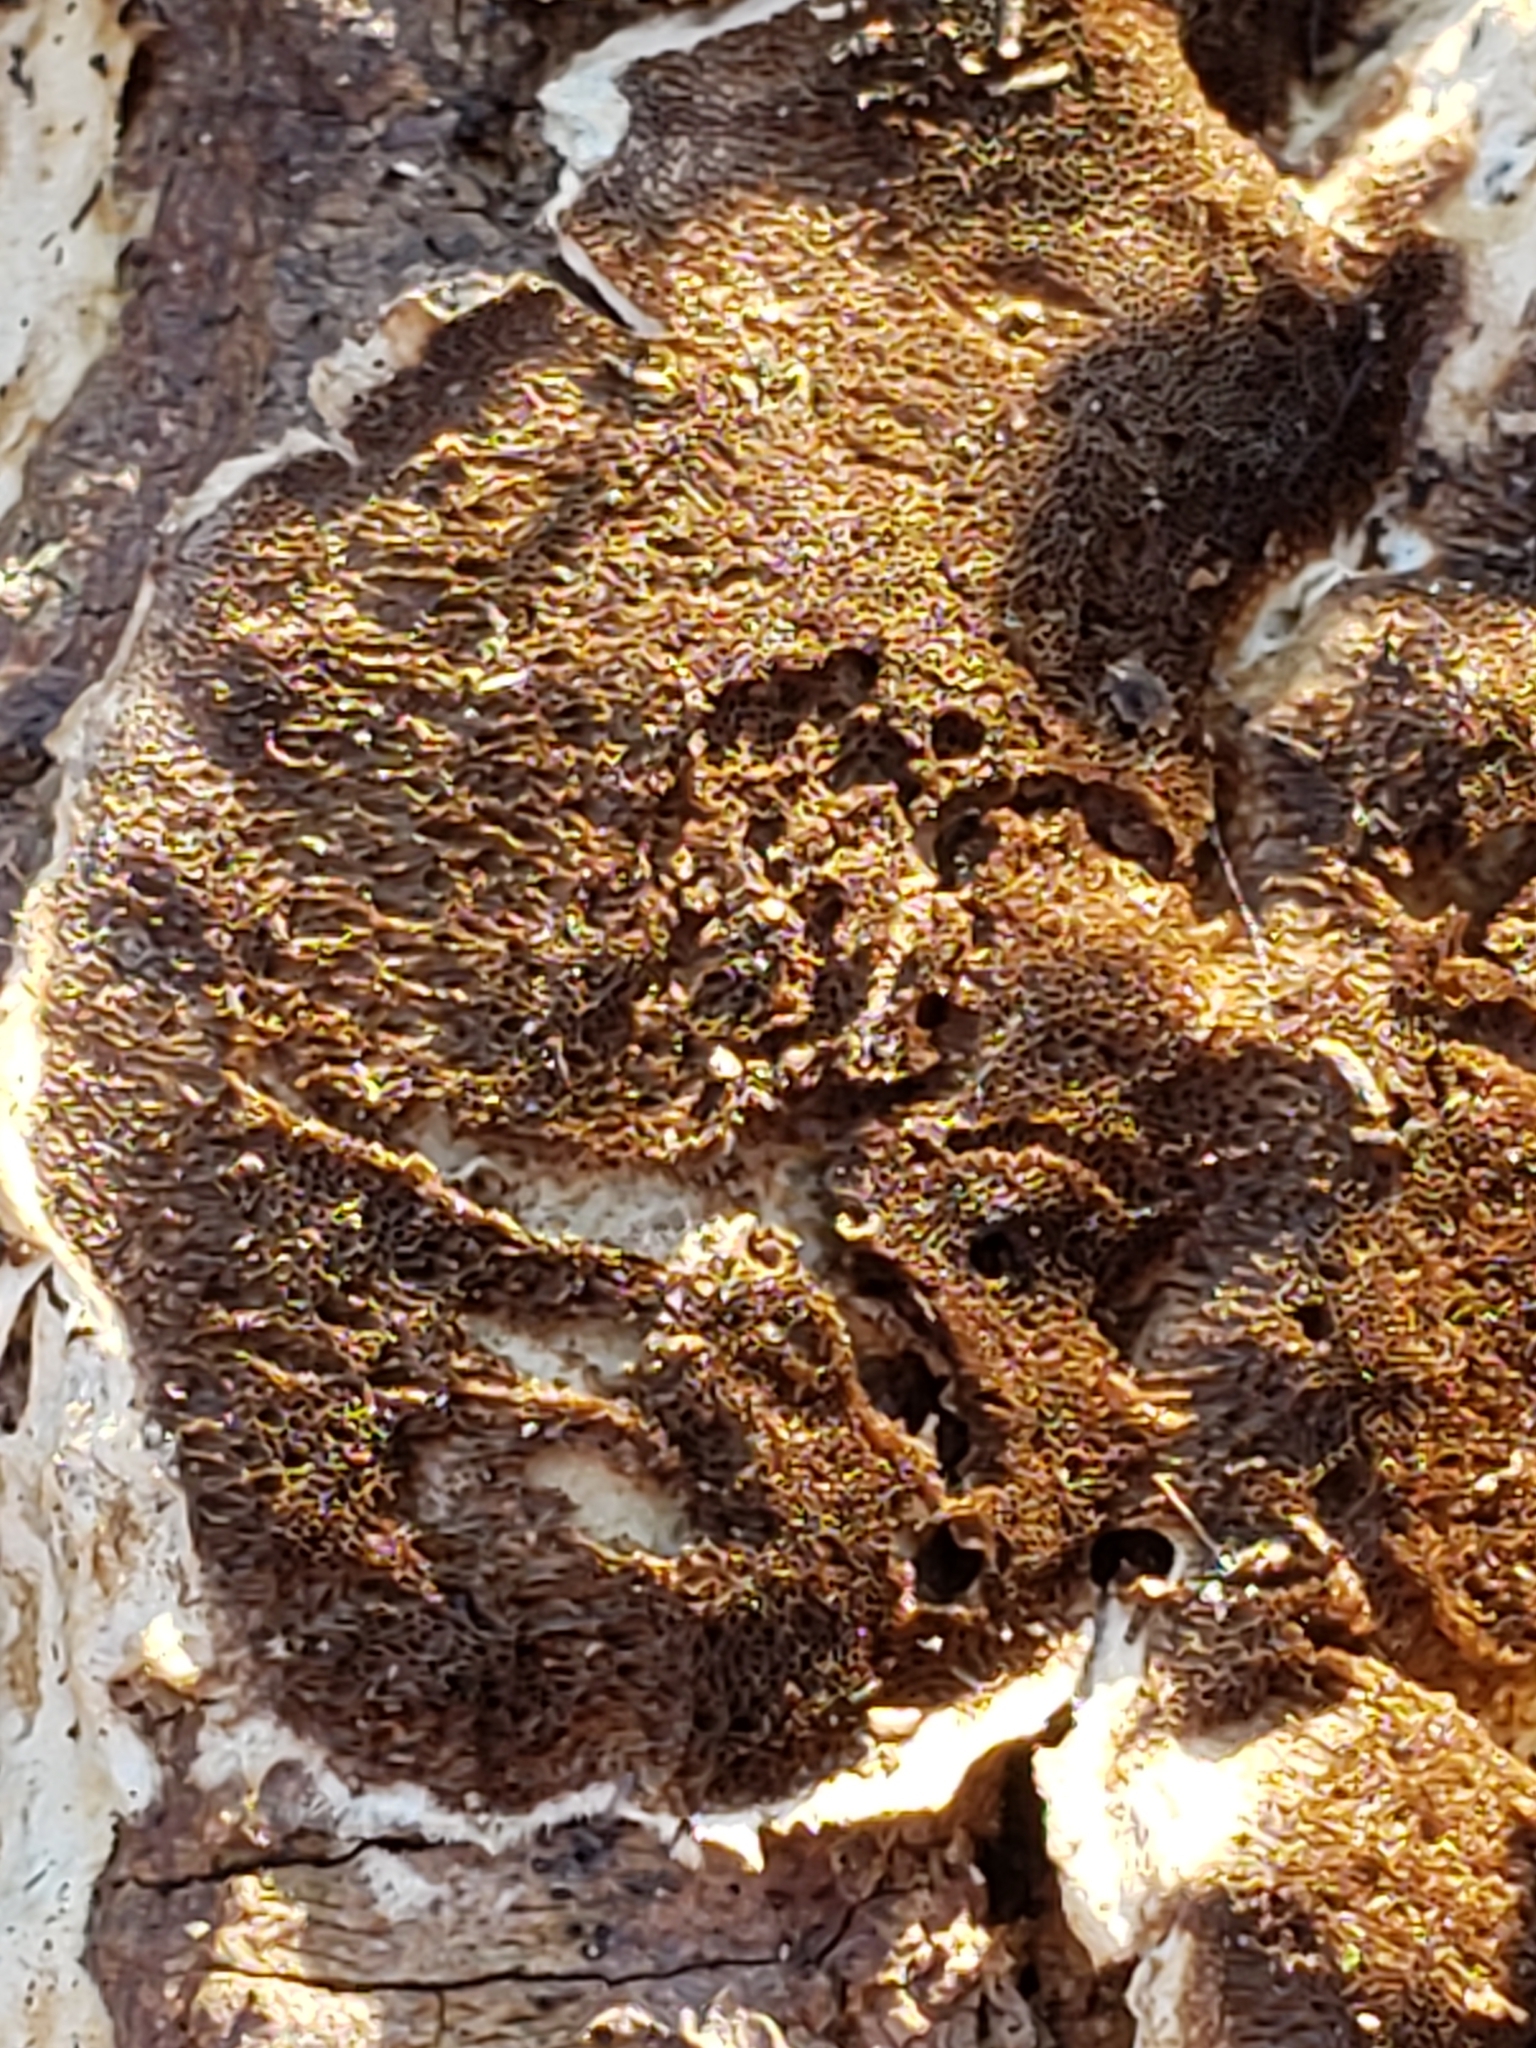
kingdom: Fungi
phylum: Basidiomycota
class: Agaricomycetes
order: Hymenochaetales
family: Hymenochaetaceae
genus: Hydnoporia
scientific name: Hydnoporia olivacea
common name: Brown-toothed crust fungus
